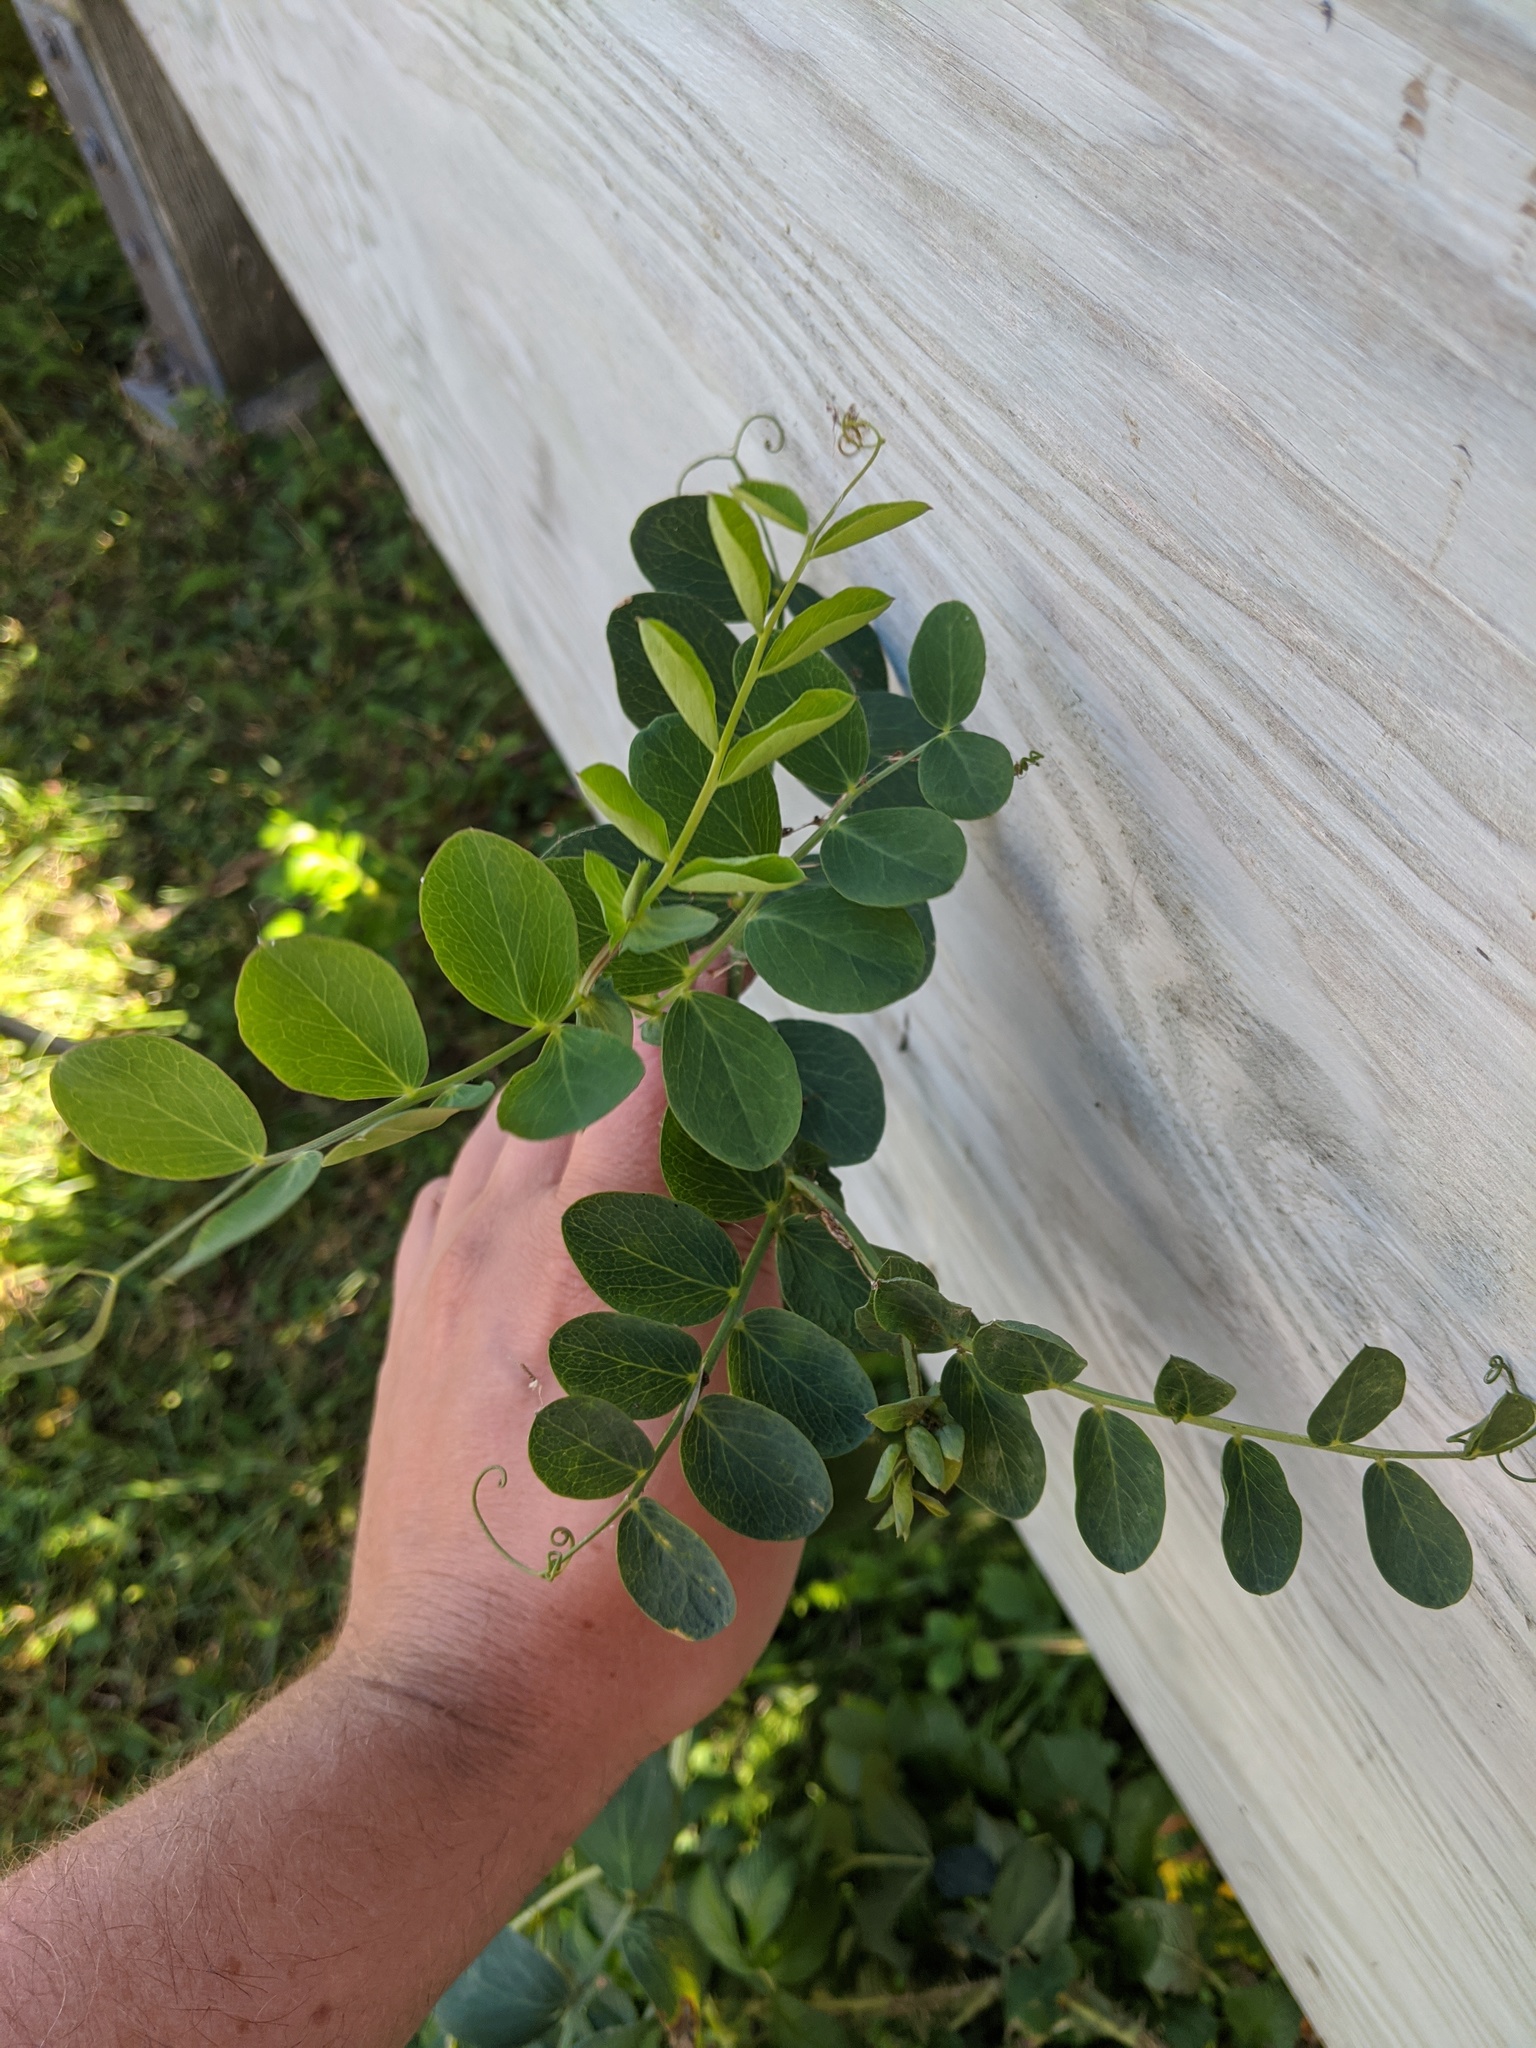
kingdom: Plantae
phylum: Tracheophyta
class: Magnoliopsida
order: Fabales
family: Fabaceae
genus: Lathyrus
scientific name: Lathyrus japonicus
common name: Sea pea
